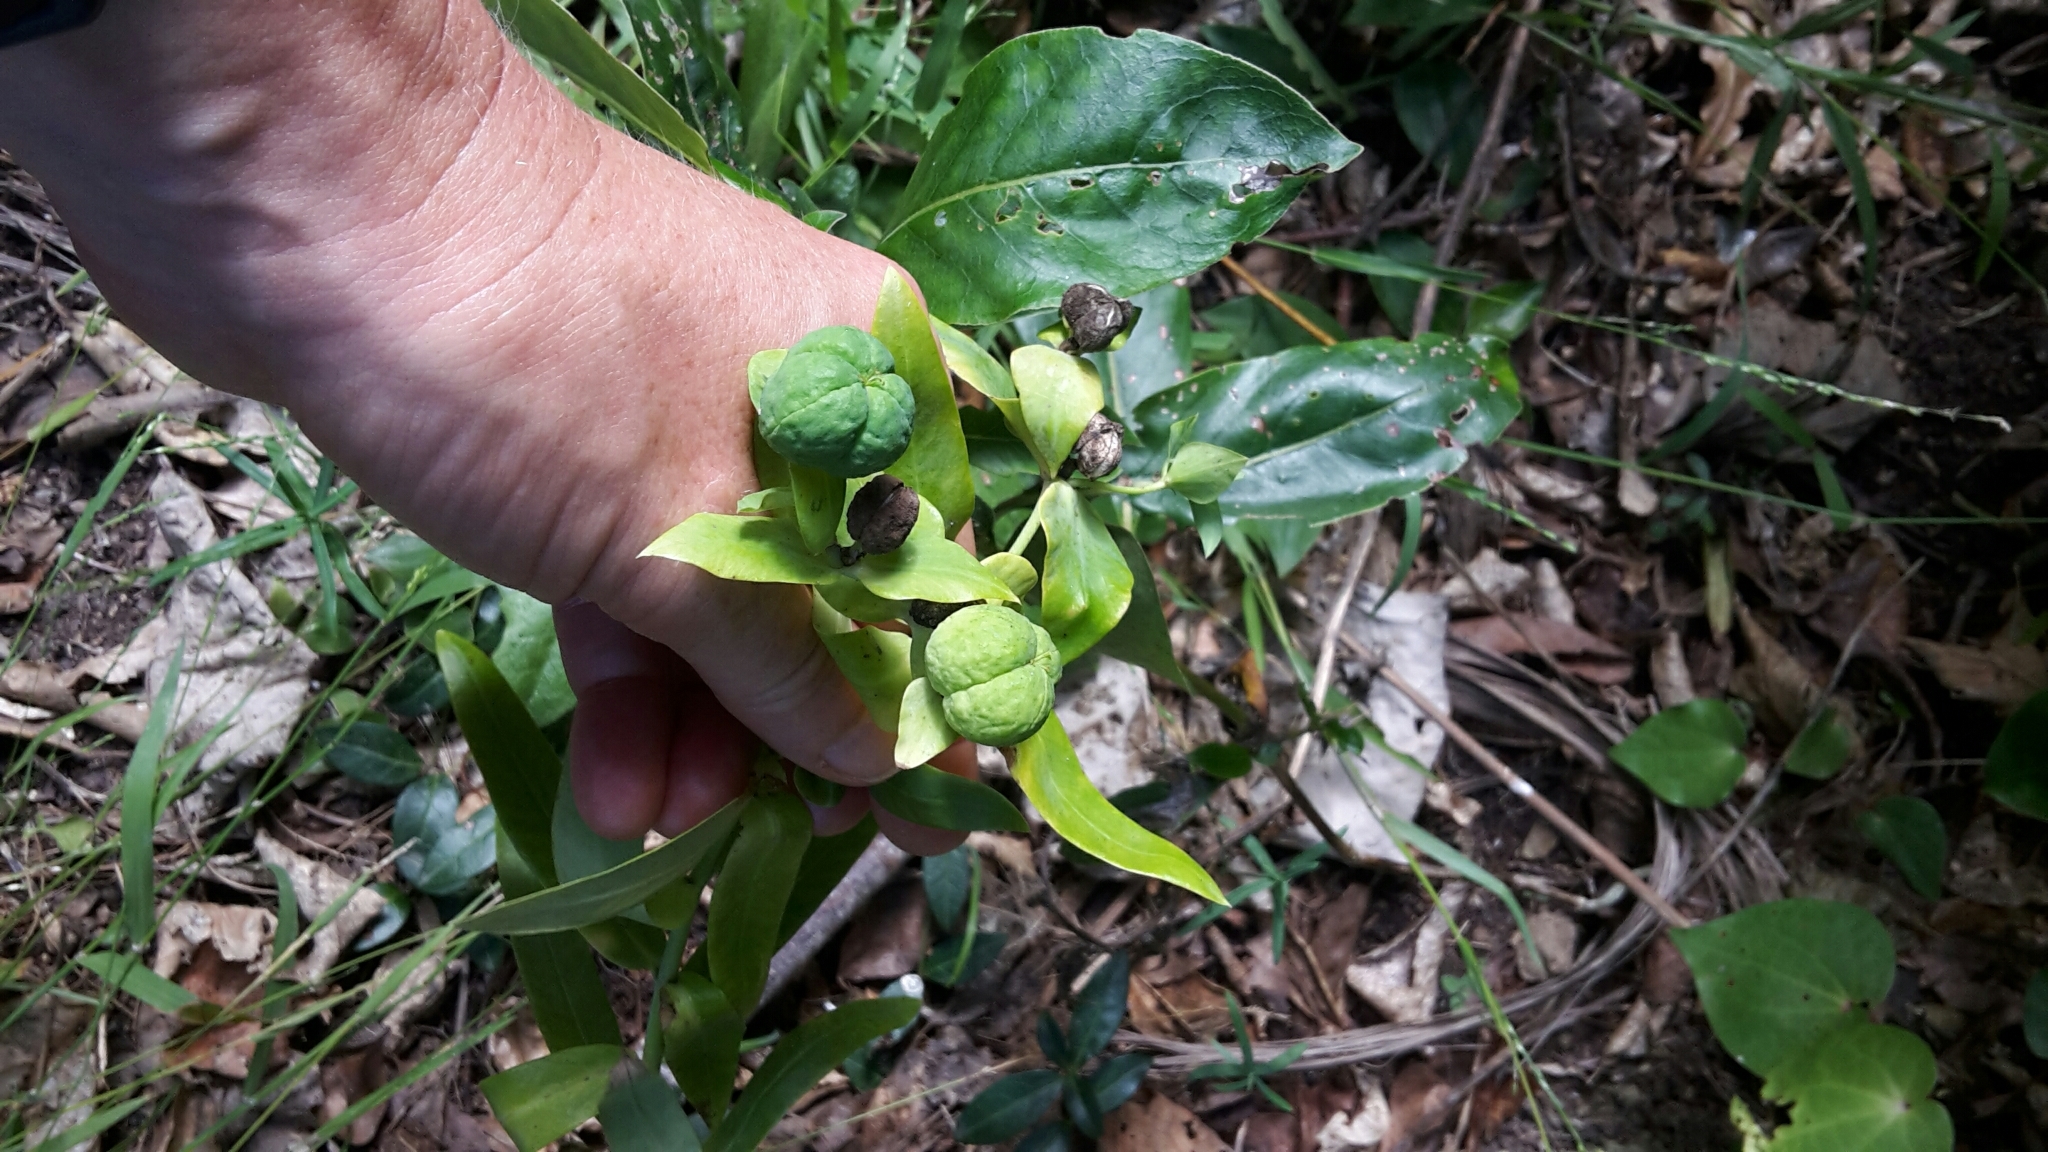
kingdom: Plantae
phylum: Tracheophyta
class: Magnoliopsida
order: Malpighiales
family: Euphorbiaceae
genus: Euphorbia
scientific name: Euphorbia lathyris
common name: Caper spurge
